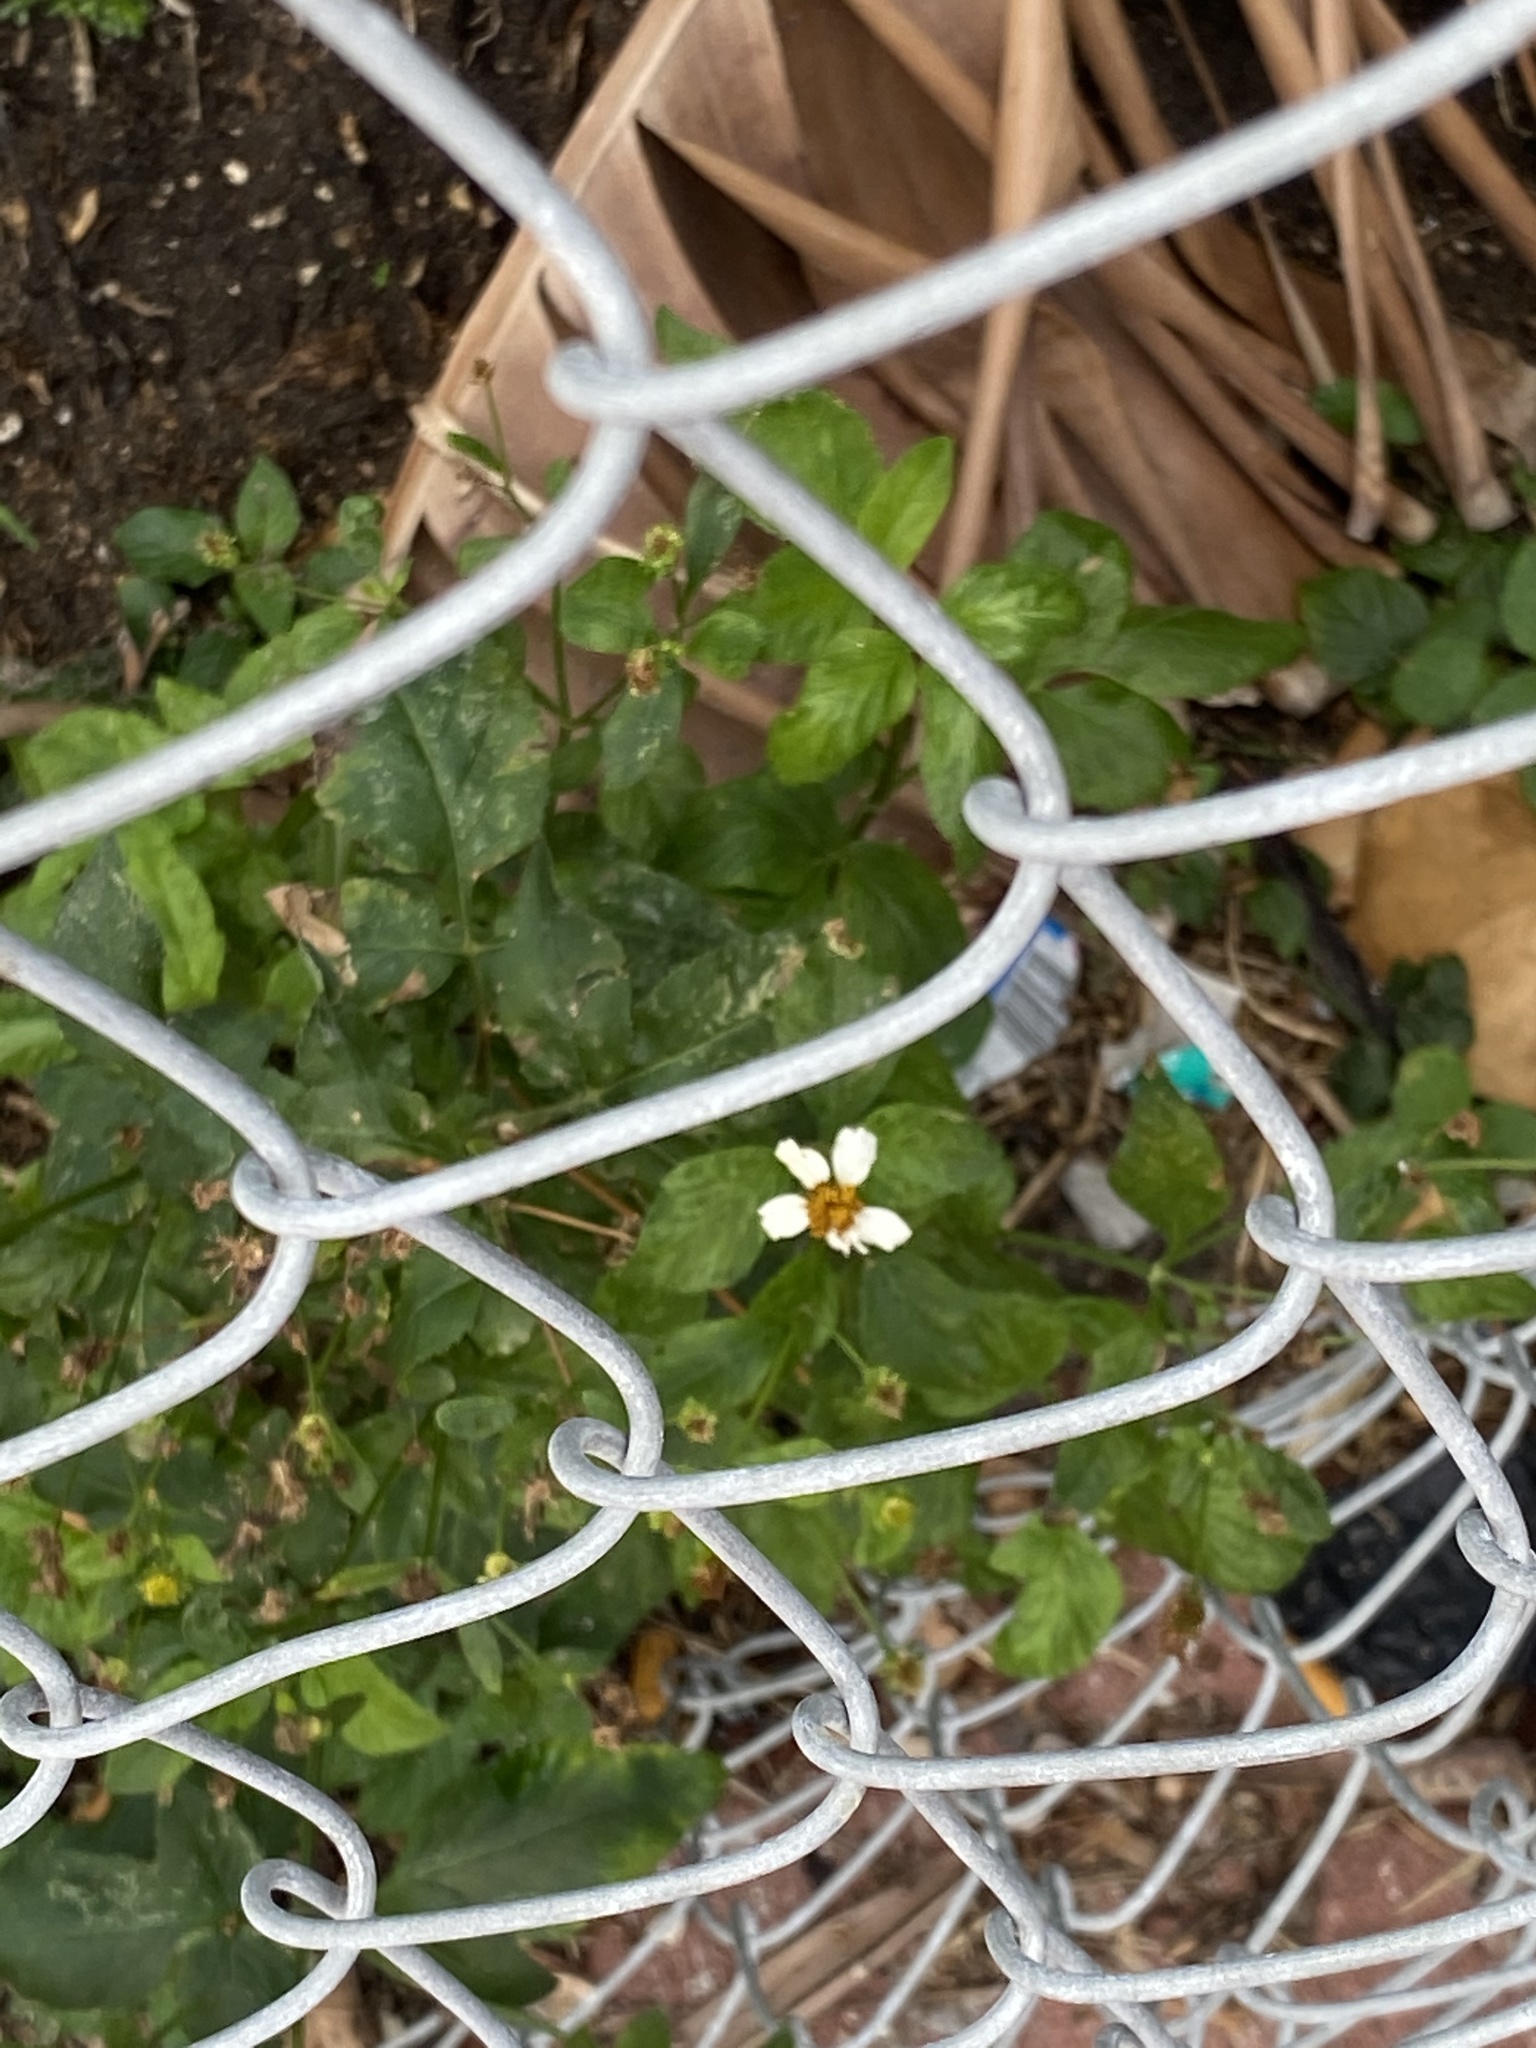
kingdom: Plantae
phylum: Tracheophyta
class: Magnoliopsida
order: Asterales
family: Asteraceae
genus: Bidens
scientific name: Bidens alba
